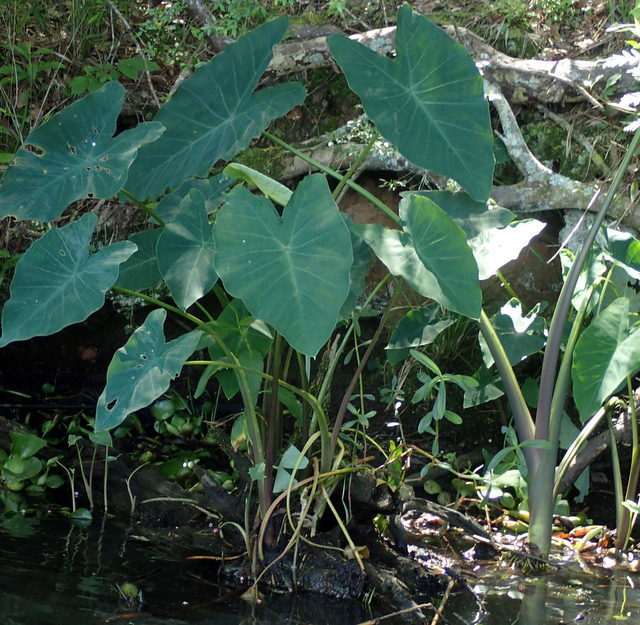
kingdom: Plantae
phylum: Tracheophyta
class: Liliopsida
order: Alismatales
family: Araceae
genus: Colocasia
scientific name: Colocasia esculenta
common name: Taro
